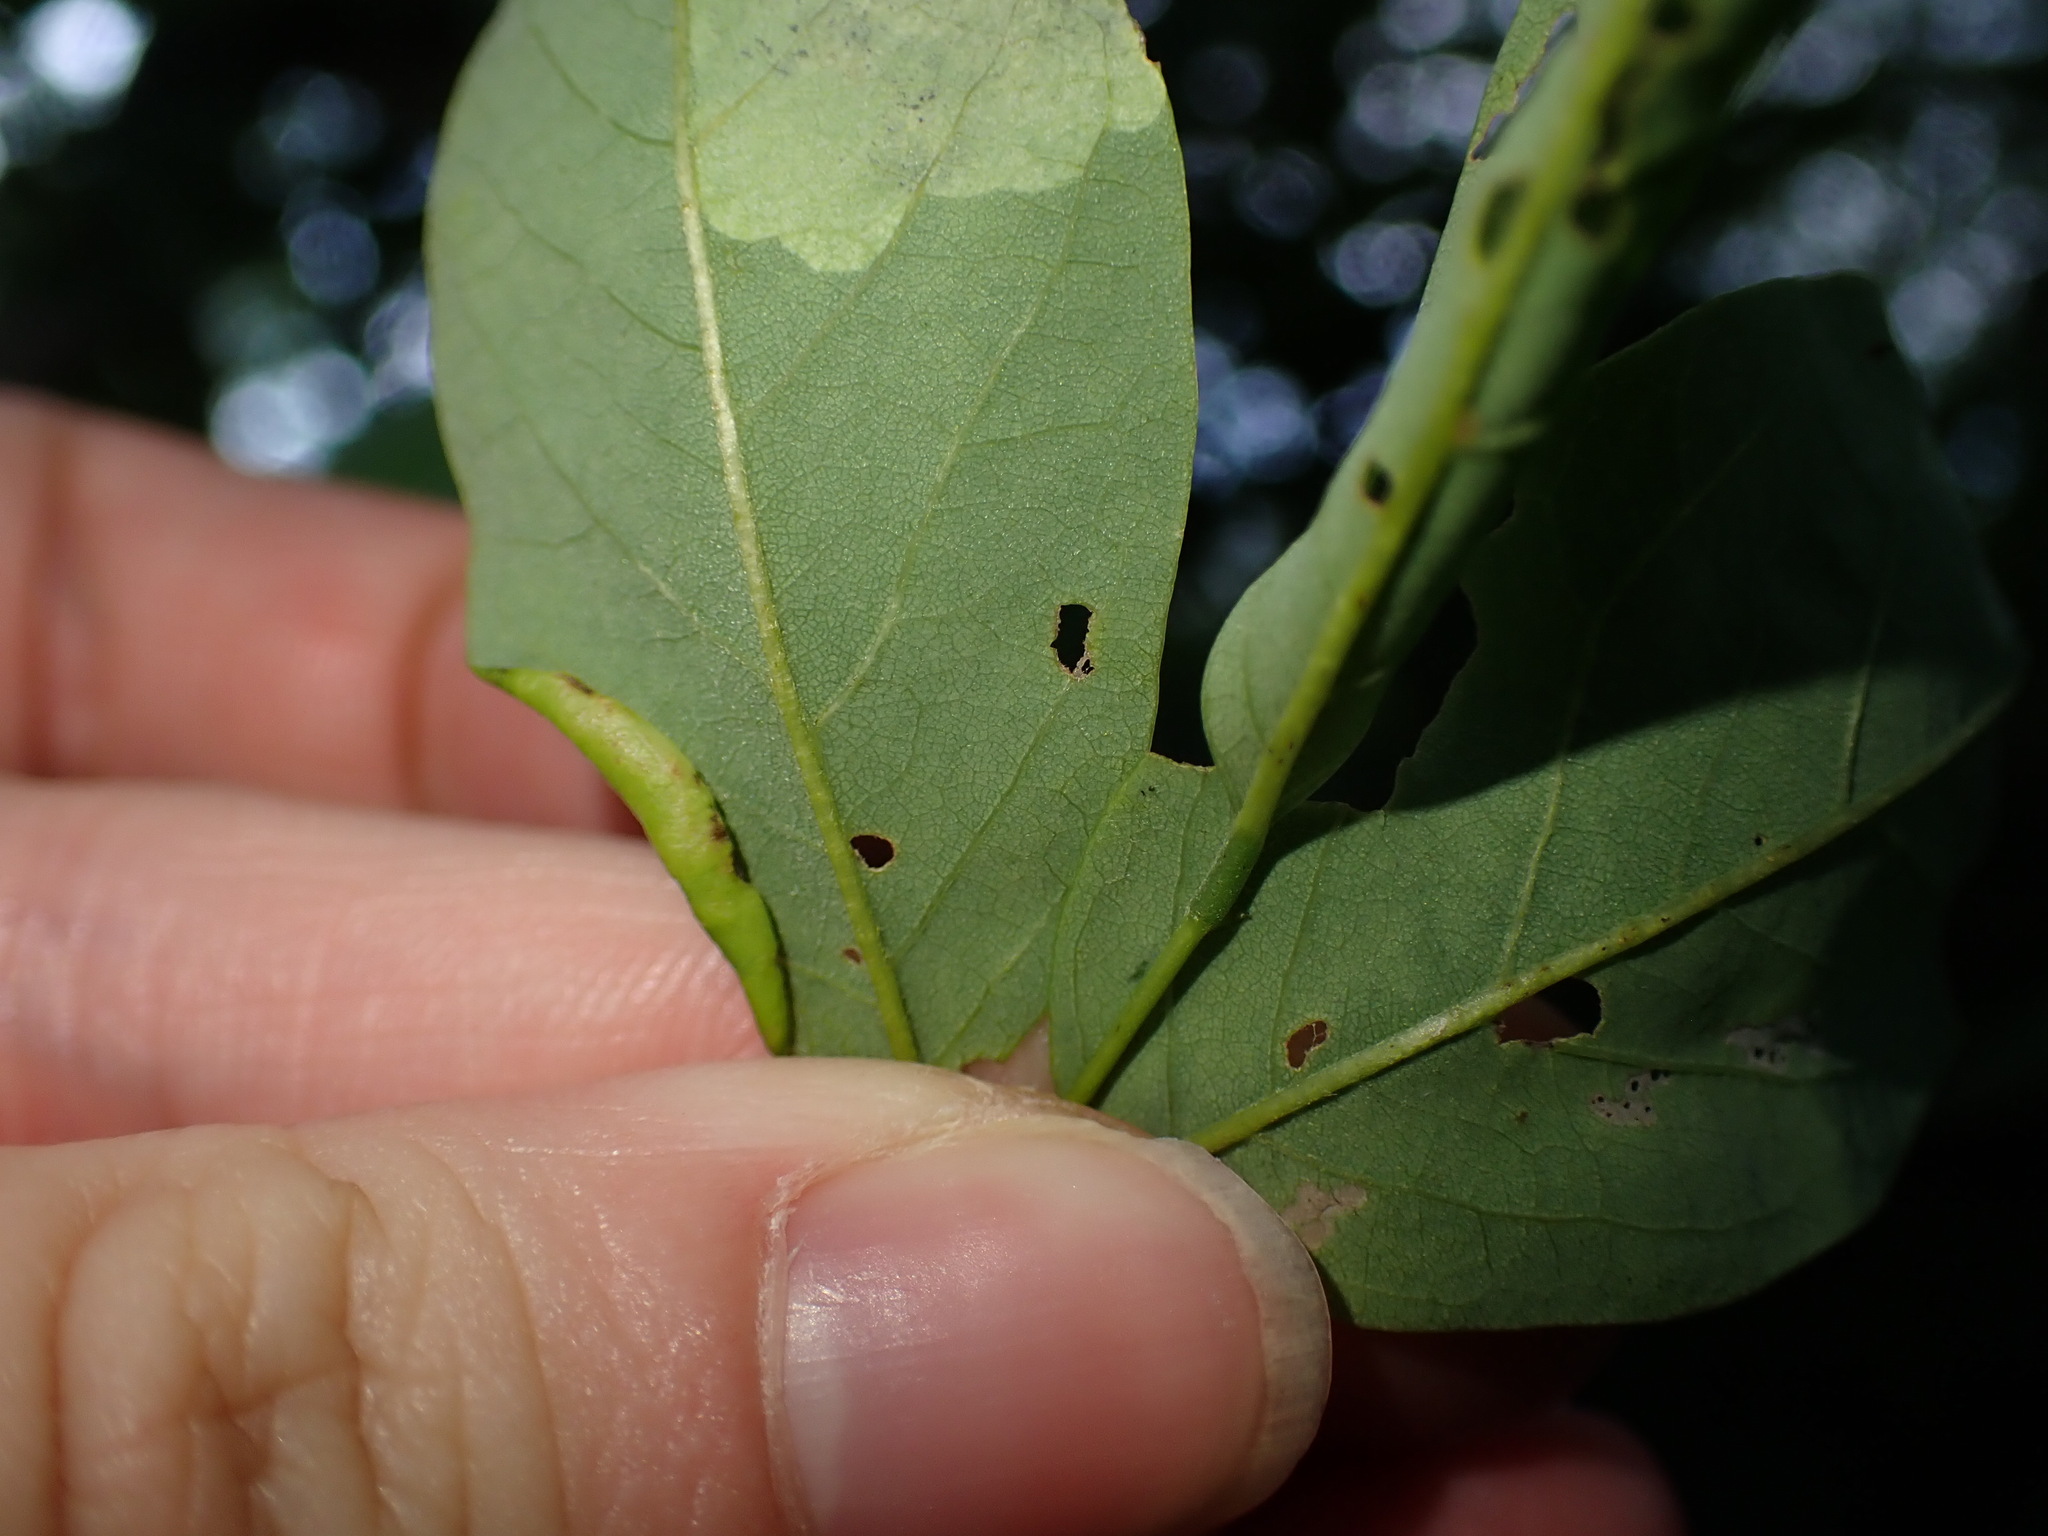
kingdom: Animalia
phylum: Arthropoda
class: Insecta
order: Diptera
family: Cecidomyiidae
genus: Obolodiplosis
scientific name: Obolodiplosis robiniae
